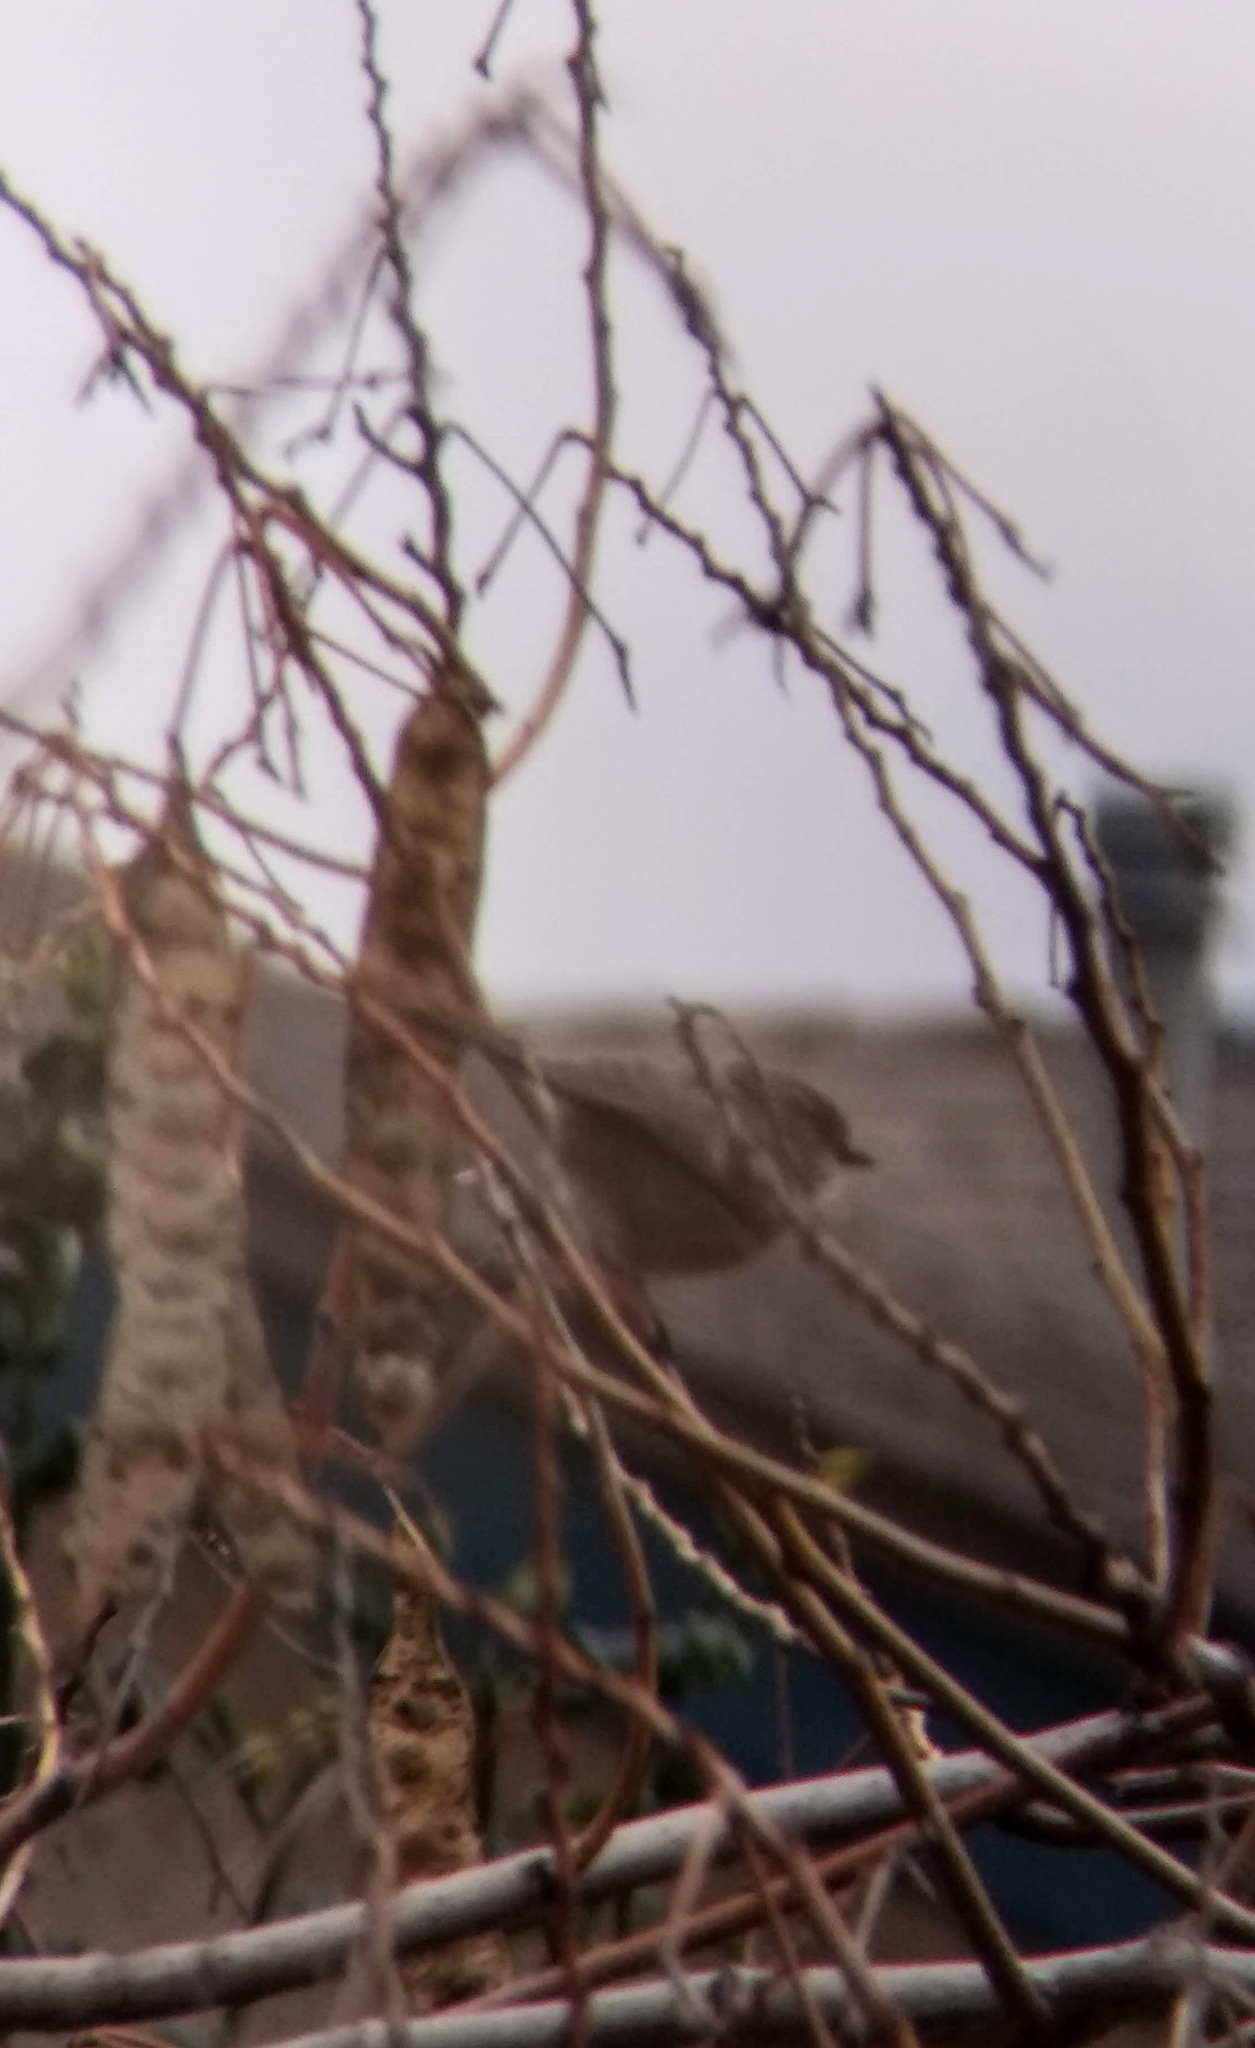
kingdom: Animalia
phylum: Chordata
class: Aves
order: Passeriformes
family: Aegithalidae
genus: Psaltriparus
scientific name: Psaltriparus minimus
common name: American bushtit
